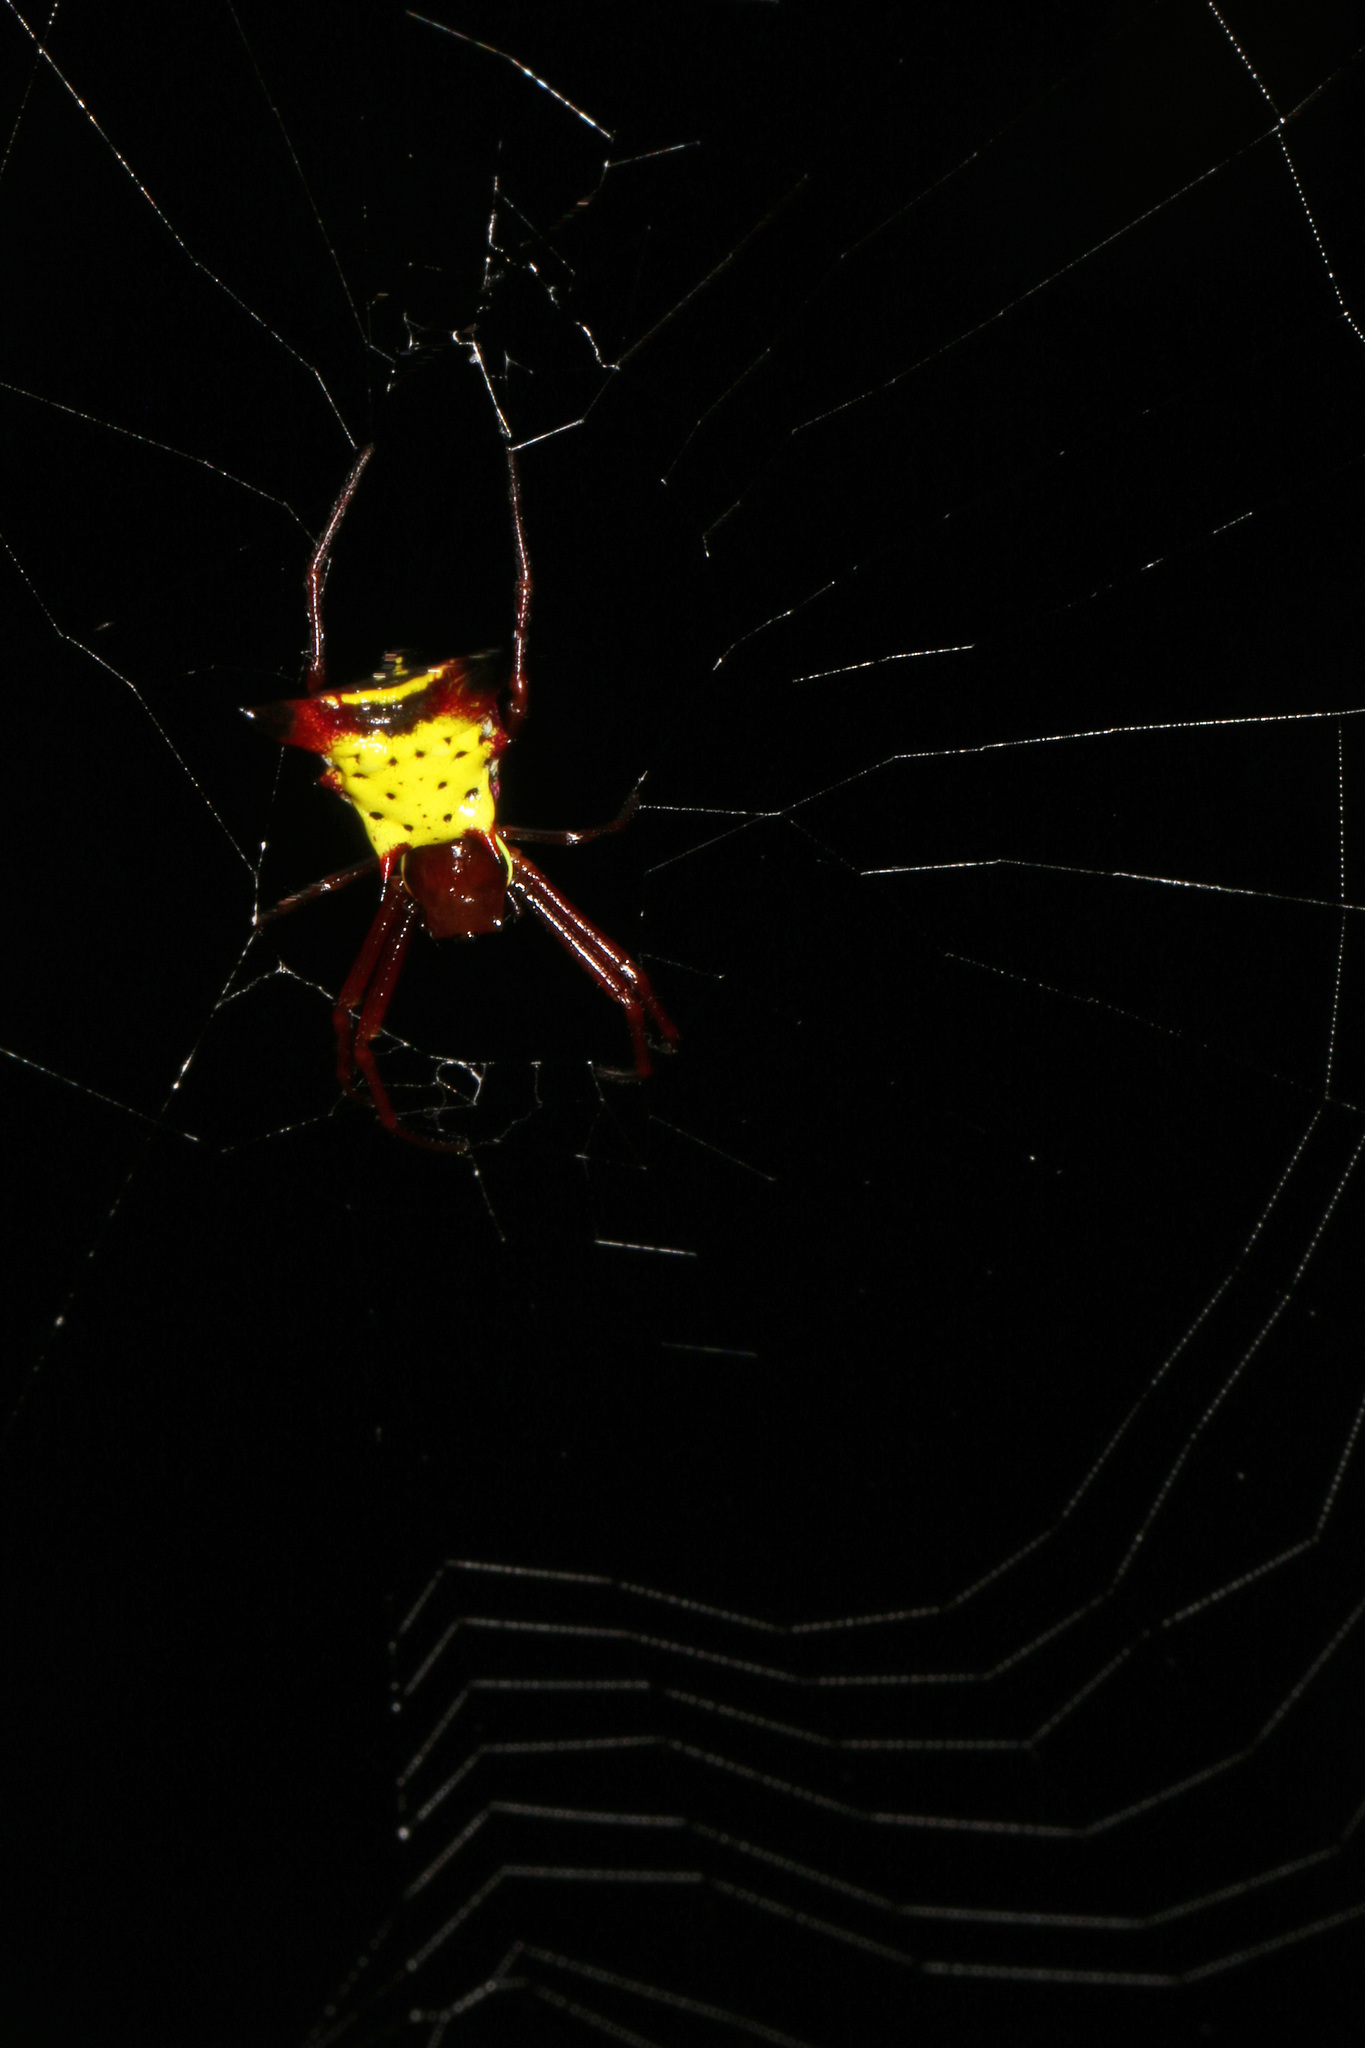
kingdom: Animalia
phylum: Arthropoda
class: Arachnida
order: Araneae
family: Araneidae
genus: Micrathena
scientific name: Micrathena sagittata
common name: Orb weavers
